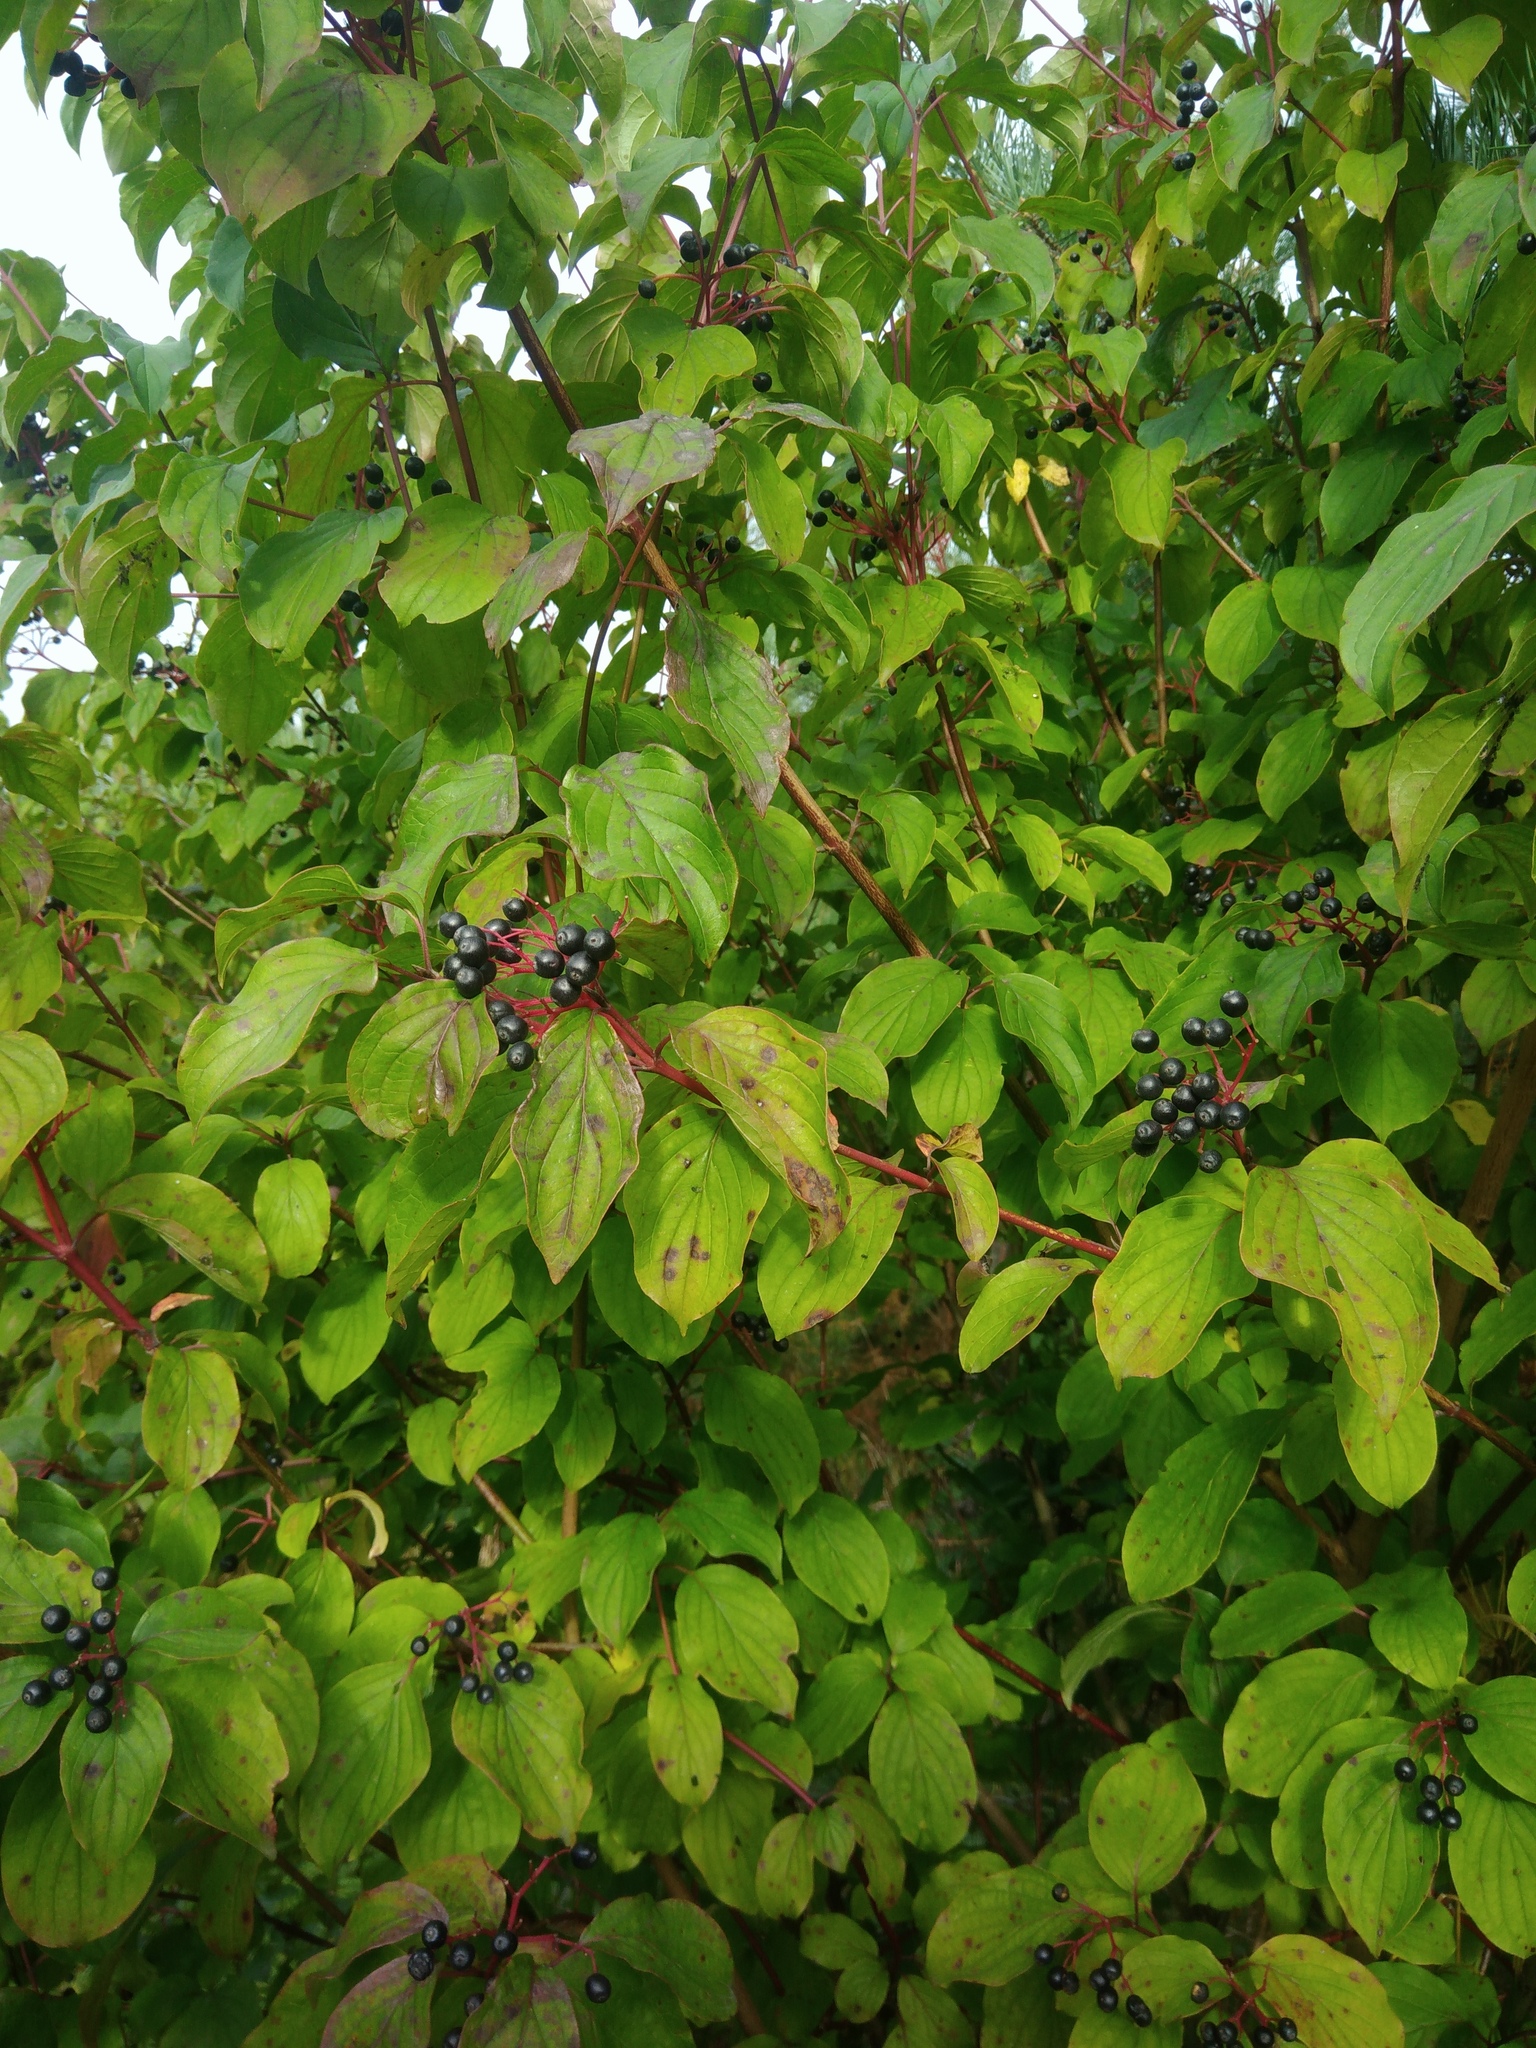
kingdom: Plantae
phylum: Tracheophyta
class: Magnoliopsida
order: Cornales
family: Cornaceae
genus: Cornus
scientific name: Cornus sanguinea
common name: Dogwood
